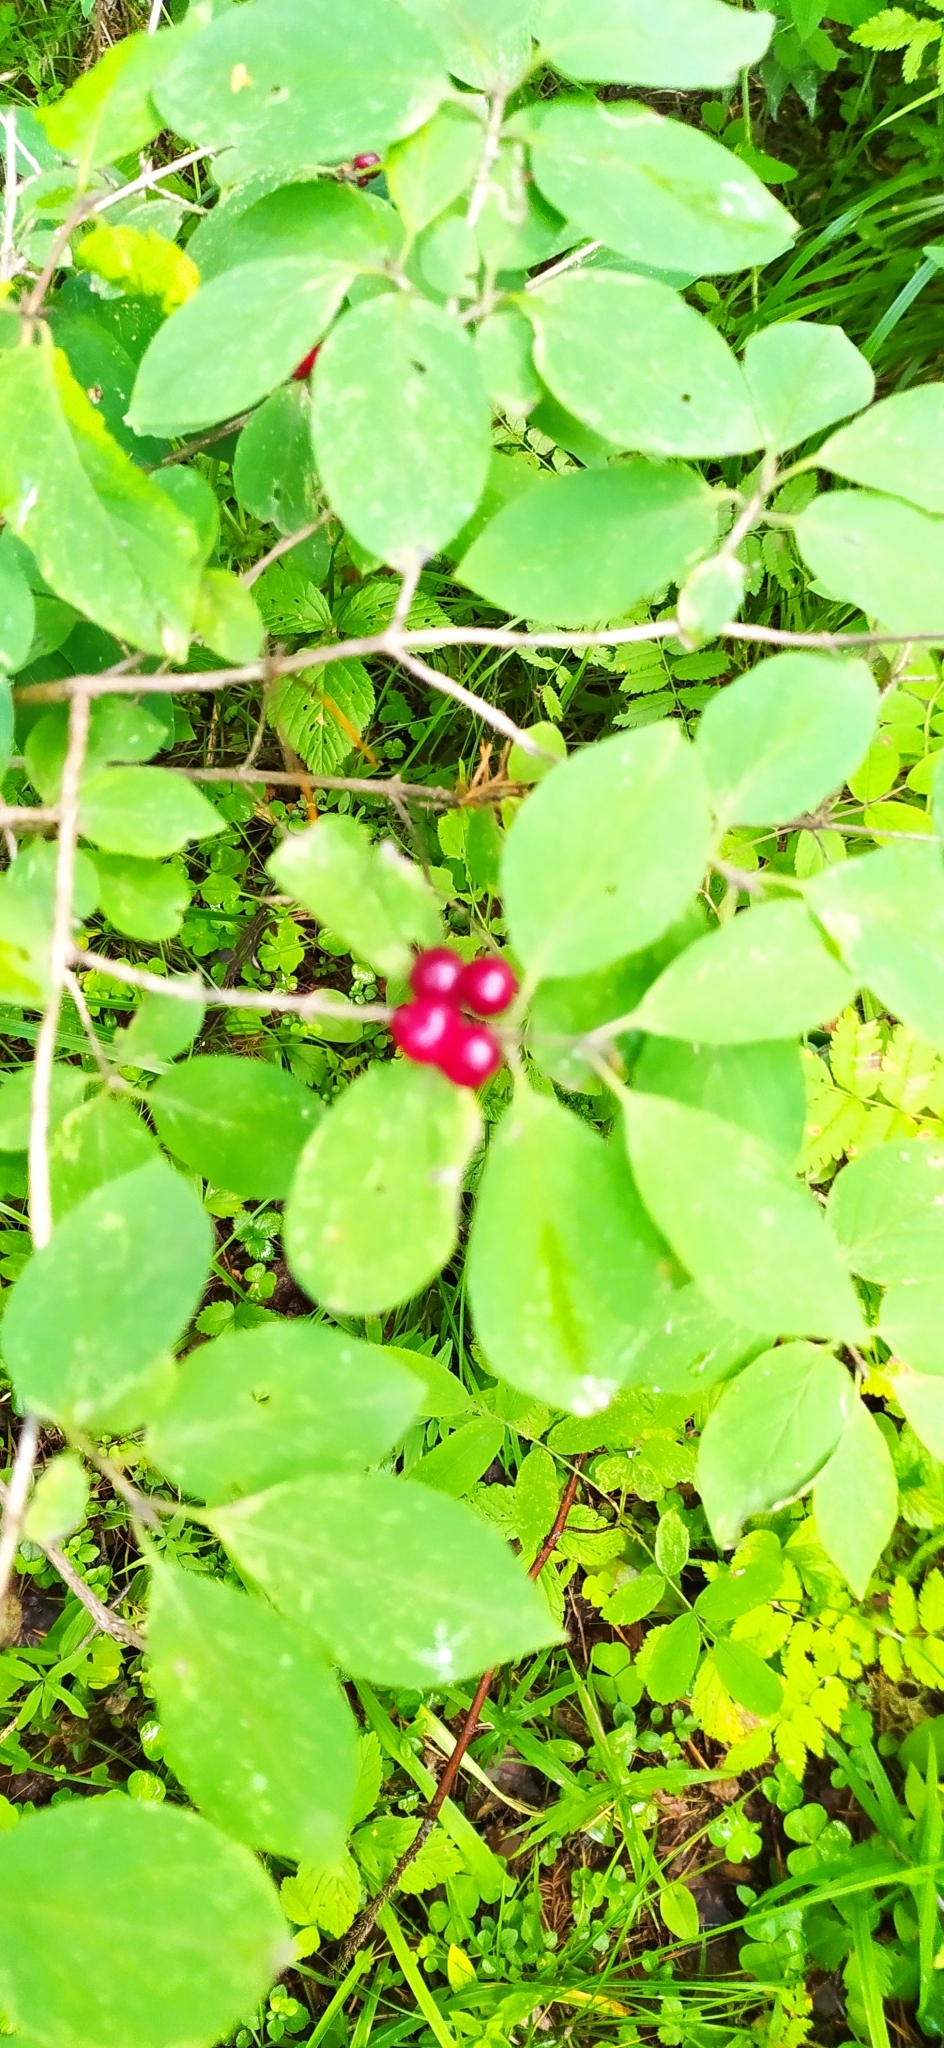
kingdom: Plantae
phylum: Tracheophyta
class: Magnoliopsida
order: Dipsacales
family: Caprifoliaceae
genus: Lonicera
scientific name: Lonicera xylosteum
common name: Fly honeysuckle
